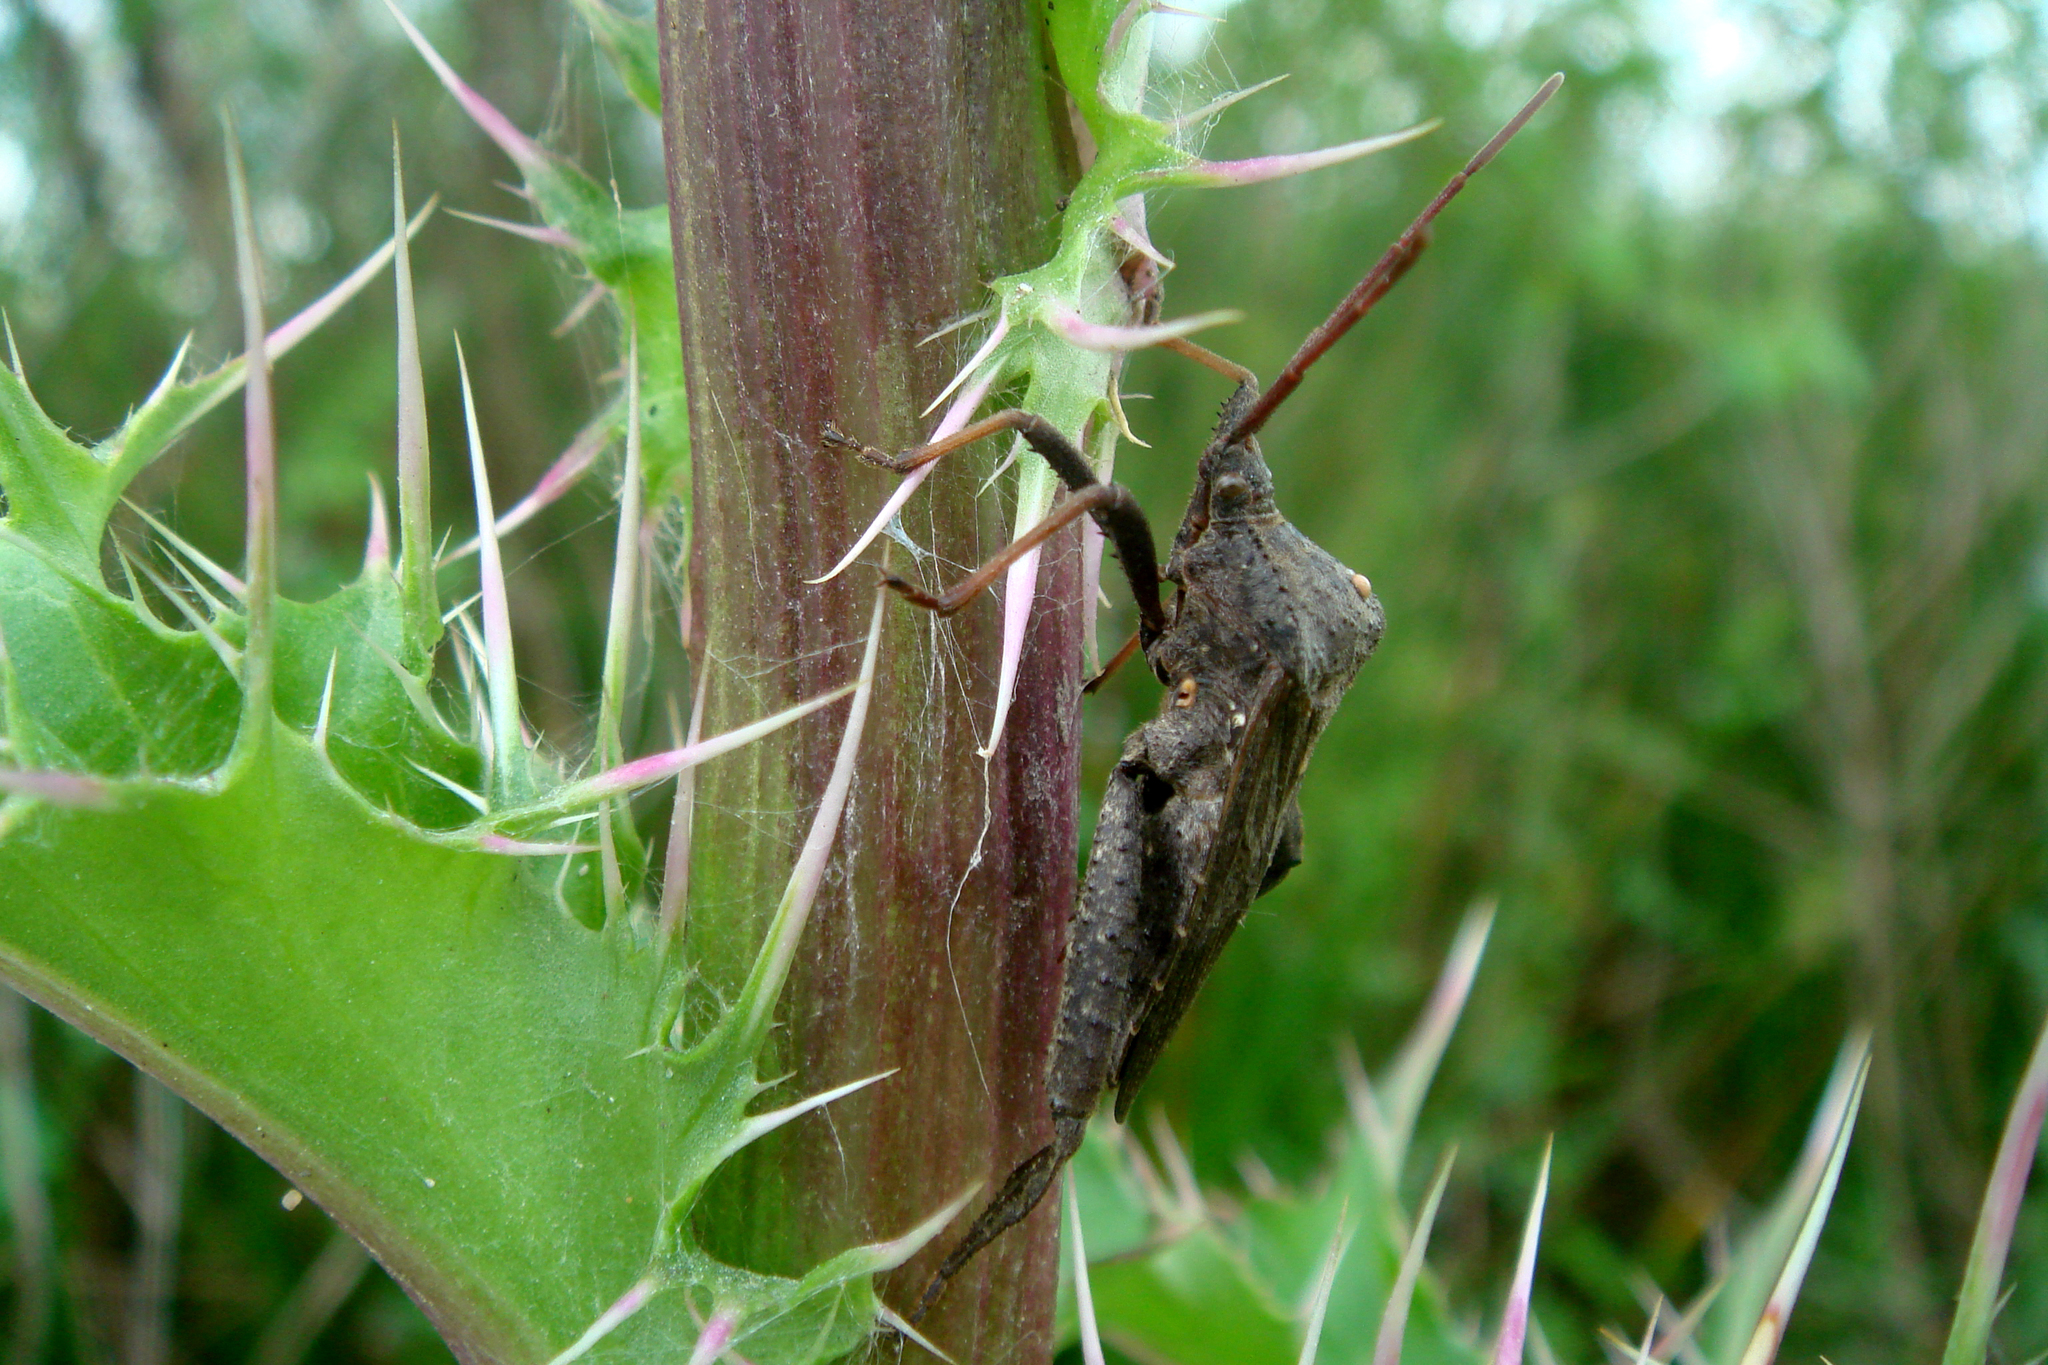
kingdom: Animalia
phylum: Arthropoda
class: Insecta
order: Hemiptera
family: Coreidae
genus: Acanthocephala
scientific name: Acanthocephala femorata
